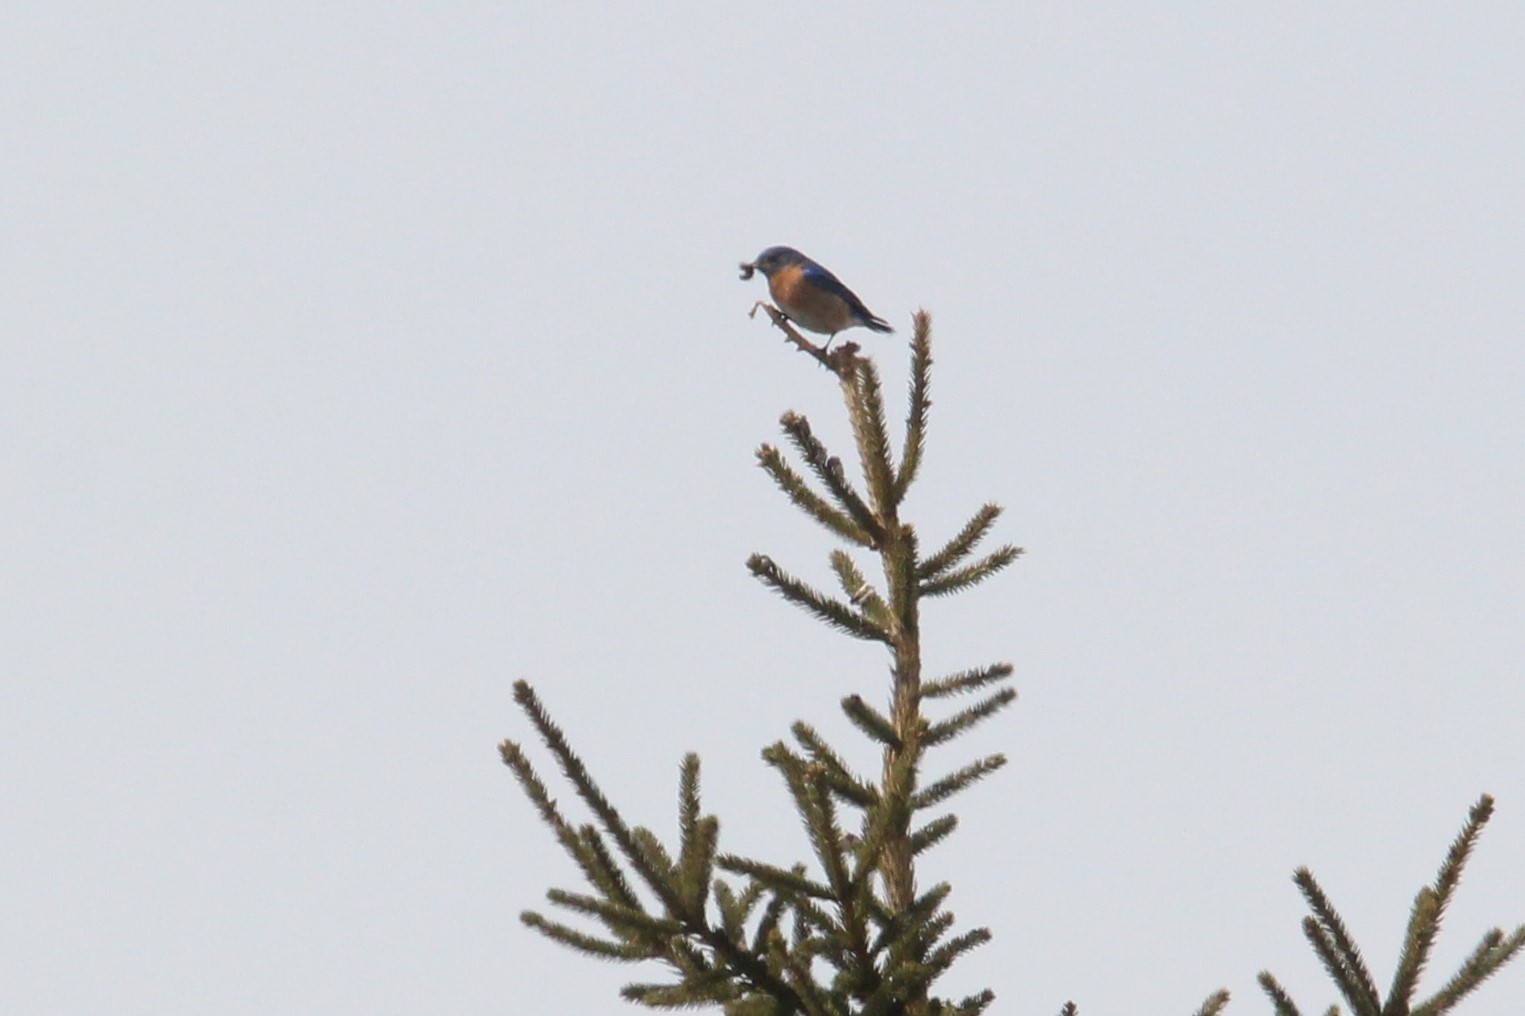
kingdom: Animalia
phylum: Chordata
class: Aves
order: Passeriformes
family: Turdidae
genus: Sialia
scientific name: Sialia sialis
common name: Eastern bluebird
